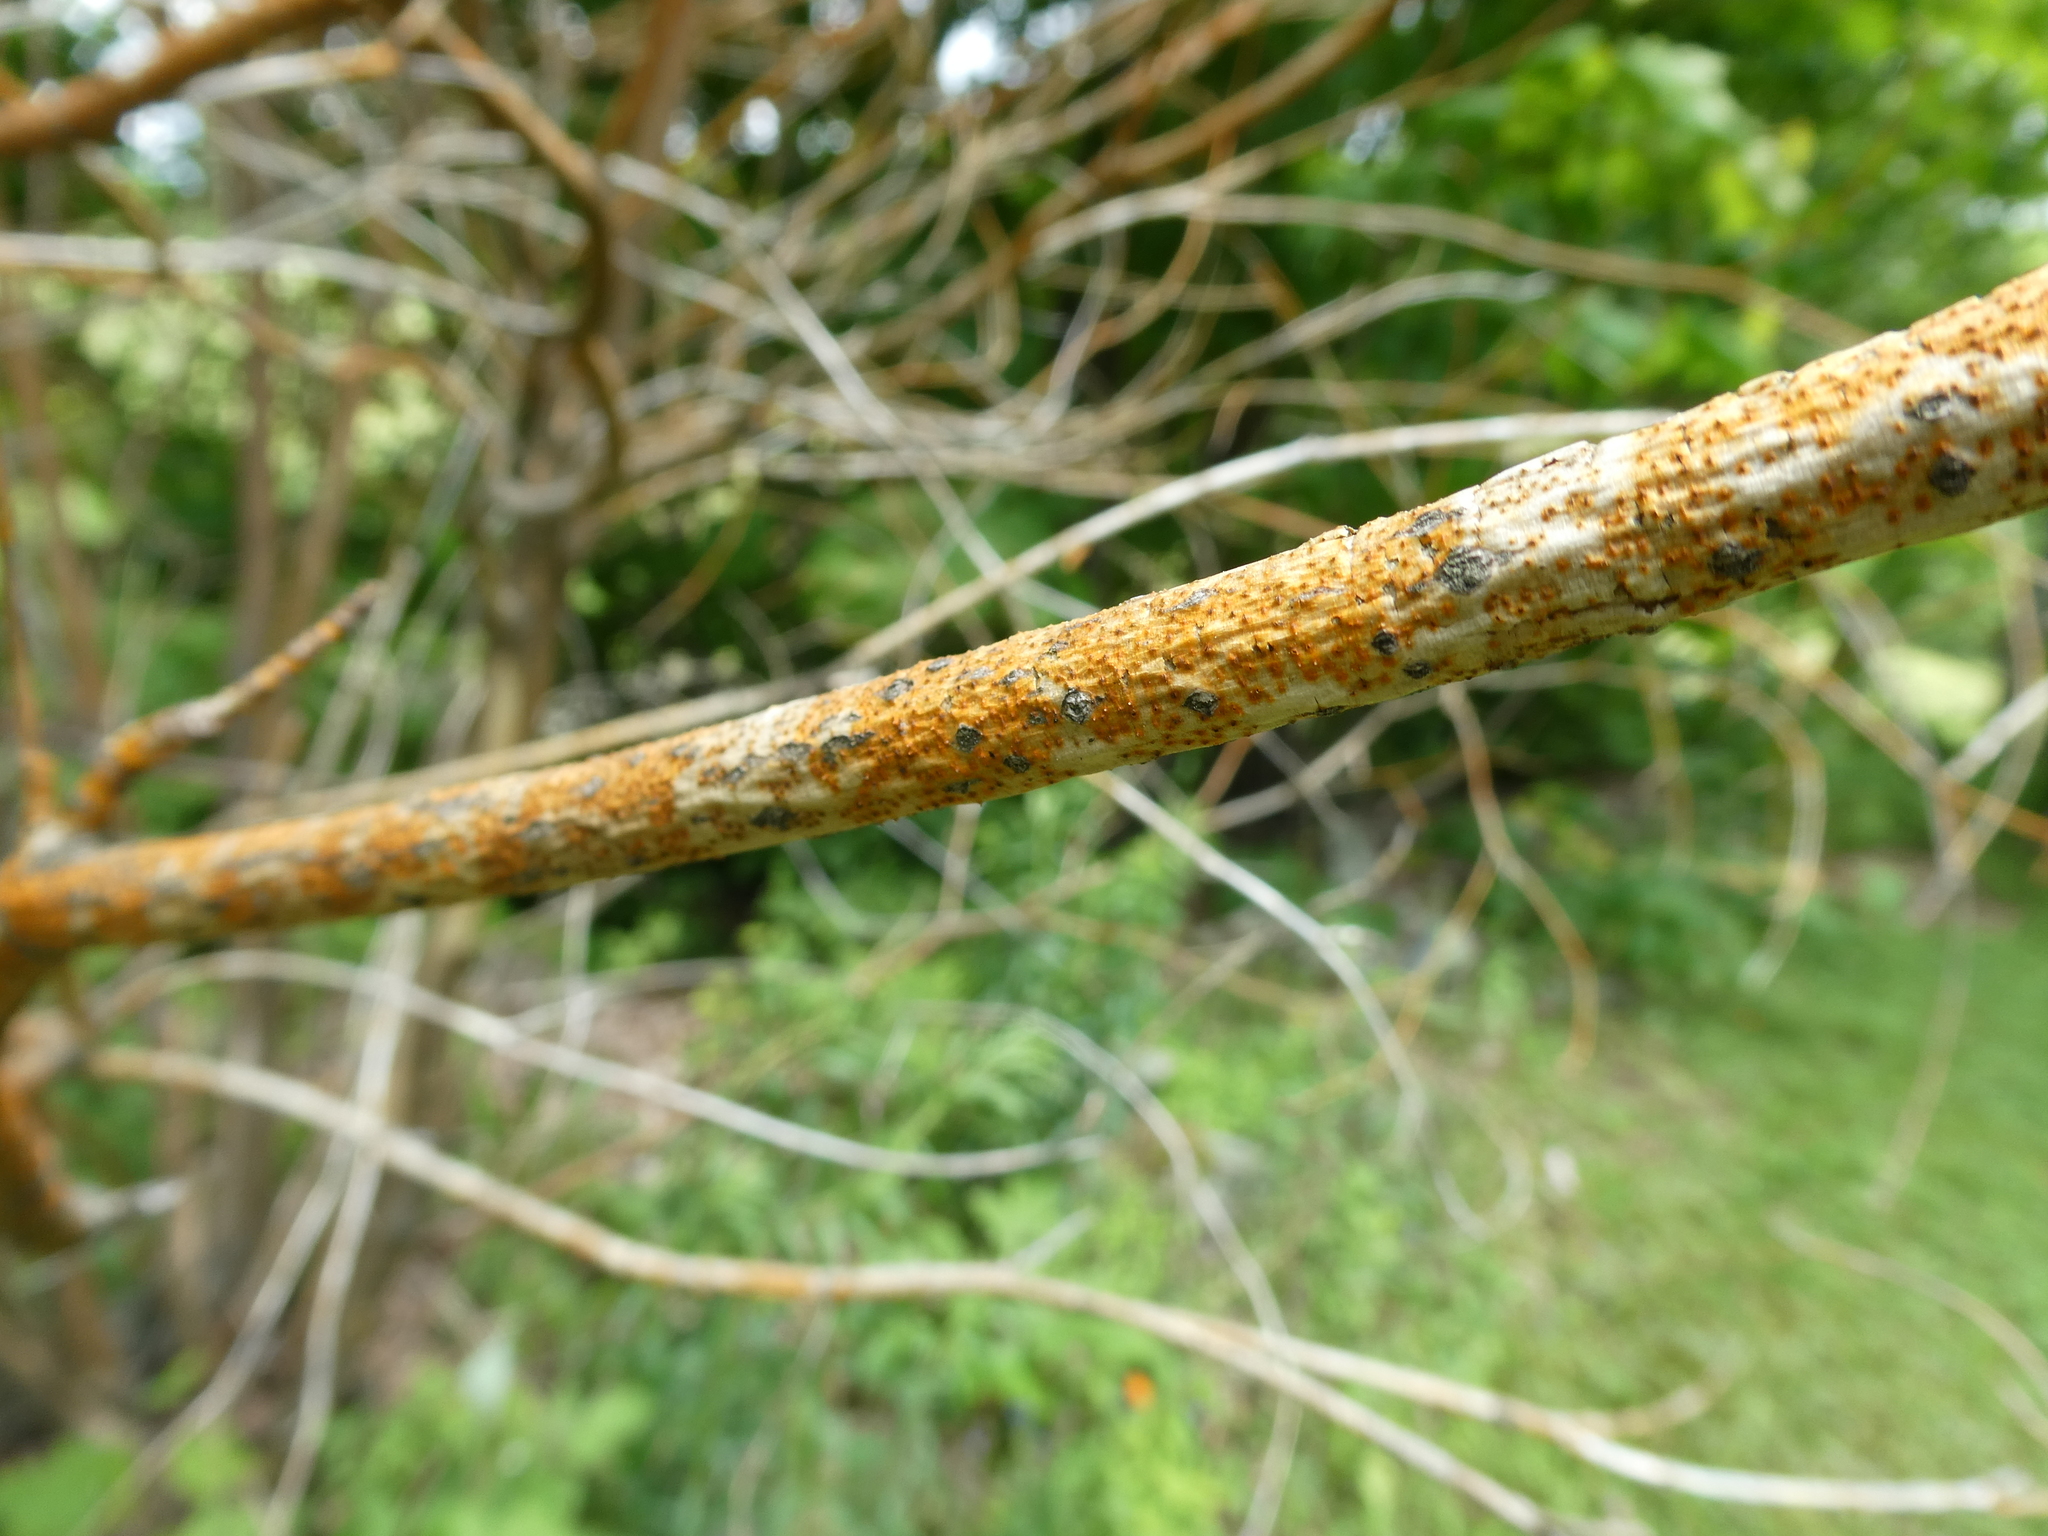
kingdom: Fungi
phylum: Ascomycota
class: Sordariomycetes
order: Diaporthales
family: Cryphonectriaceae
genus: Aurantioporthe
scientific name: Aurantioporthe corni
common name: Dogwood golden canker
